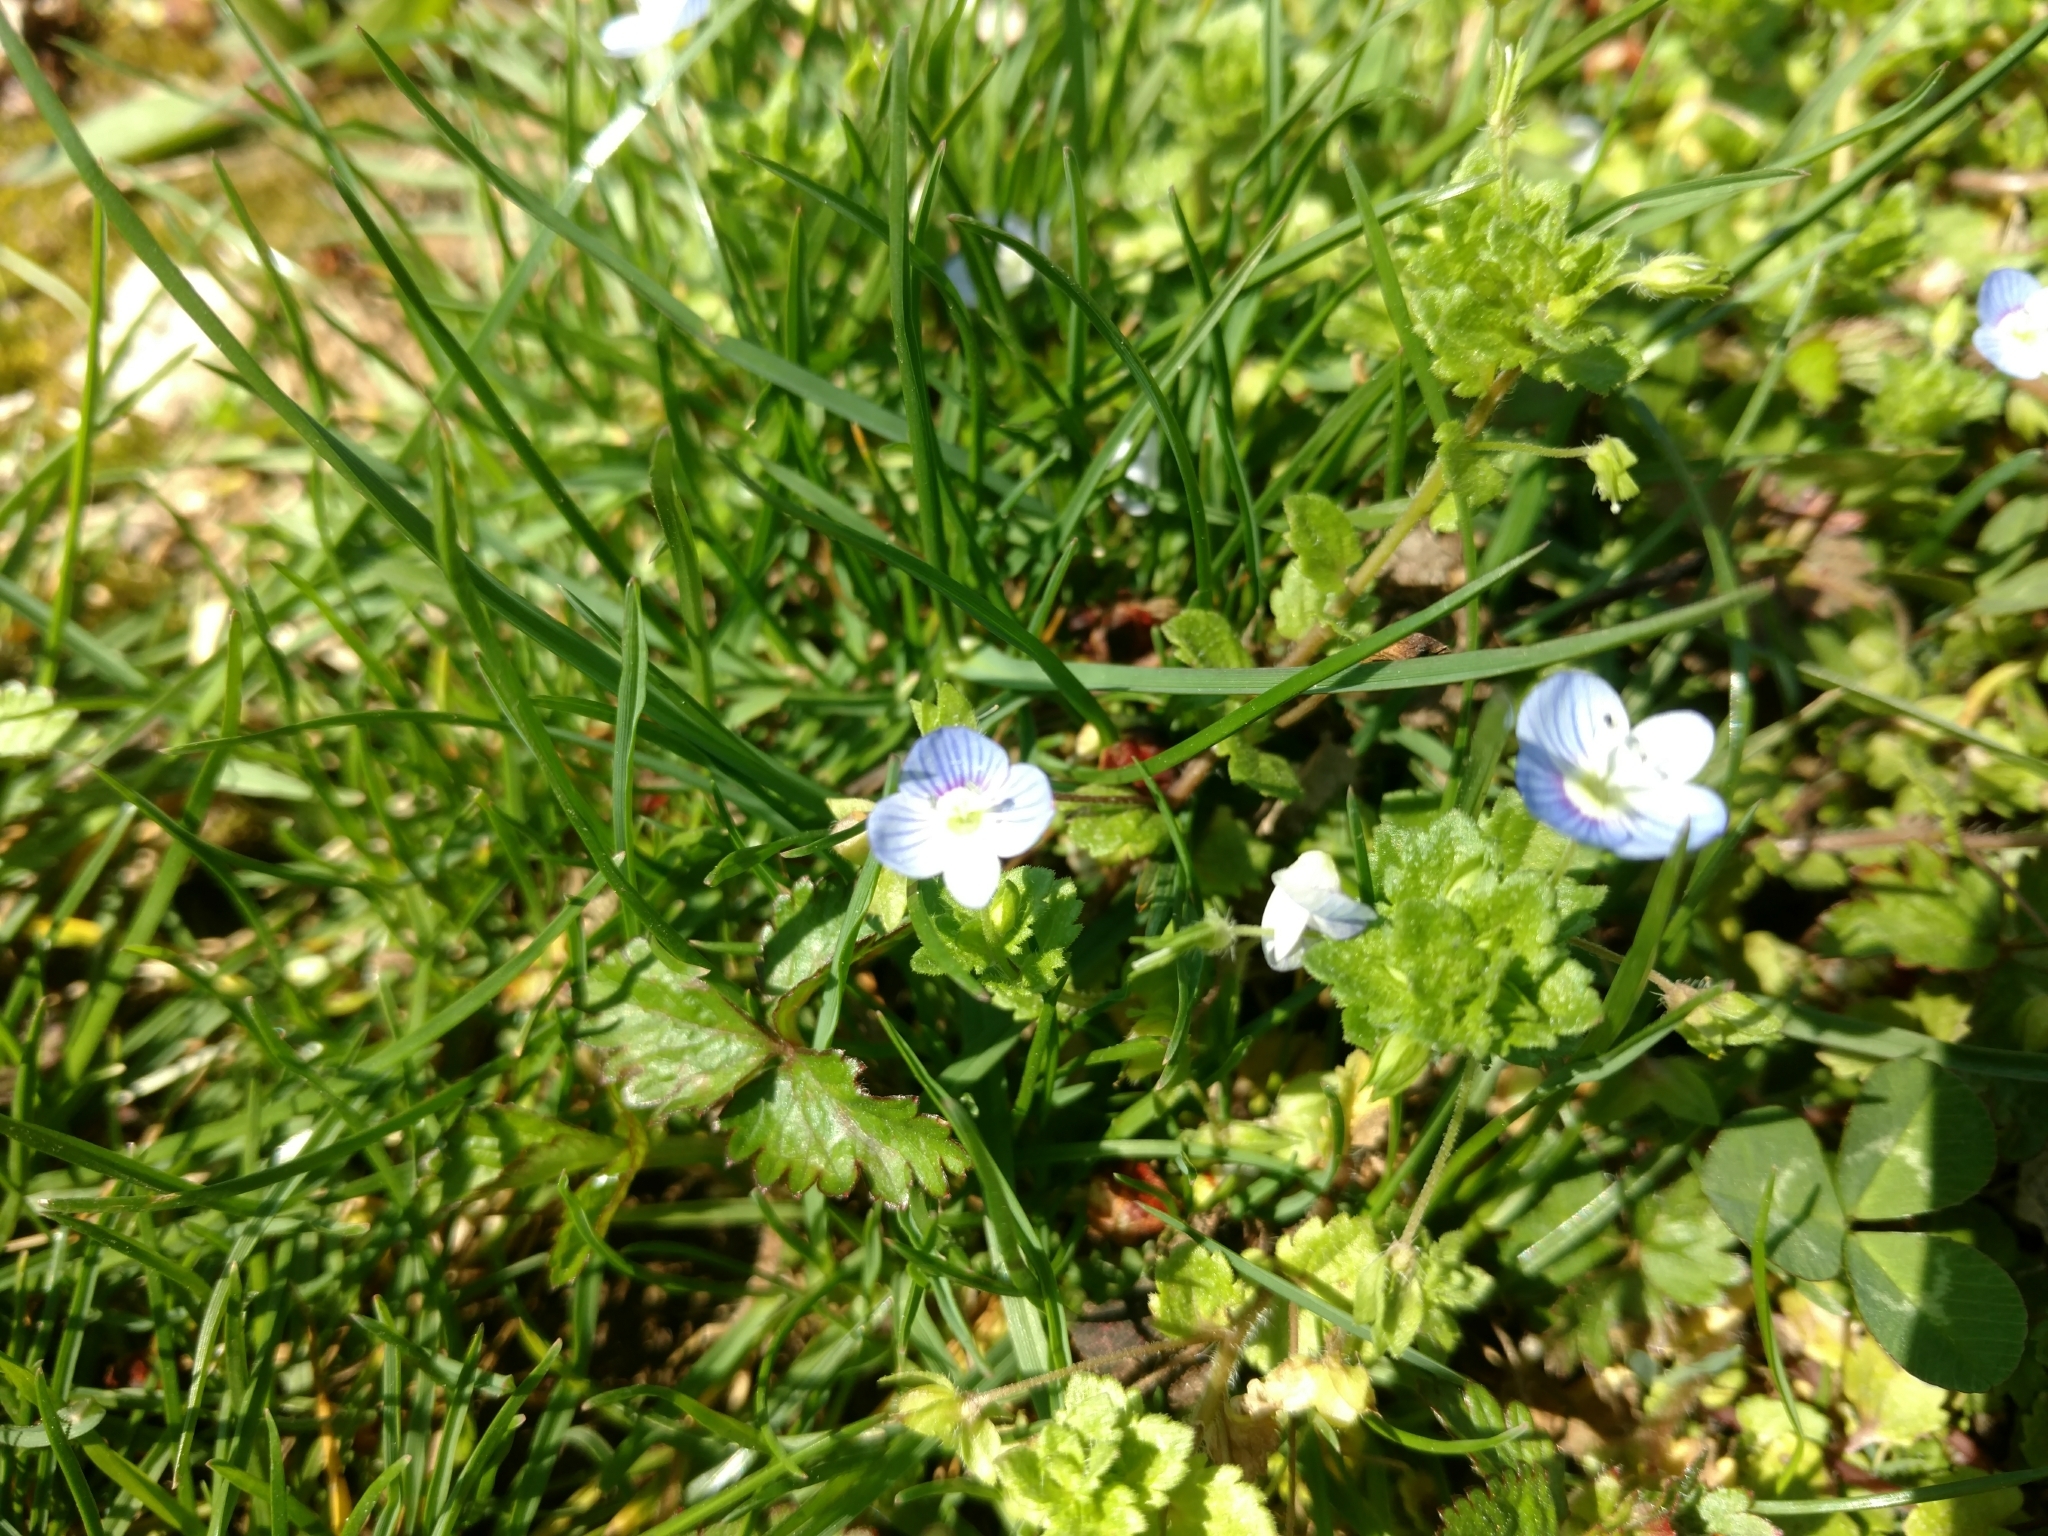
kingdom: Plantae
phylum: Tracheophyta
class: Magnoliopsida
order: Lamiales
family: Plantaginaceae
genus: Veronica
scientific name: Veronica persica
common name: Common field-speedwell
